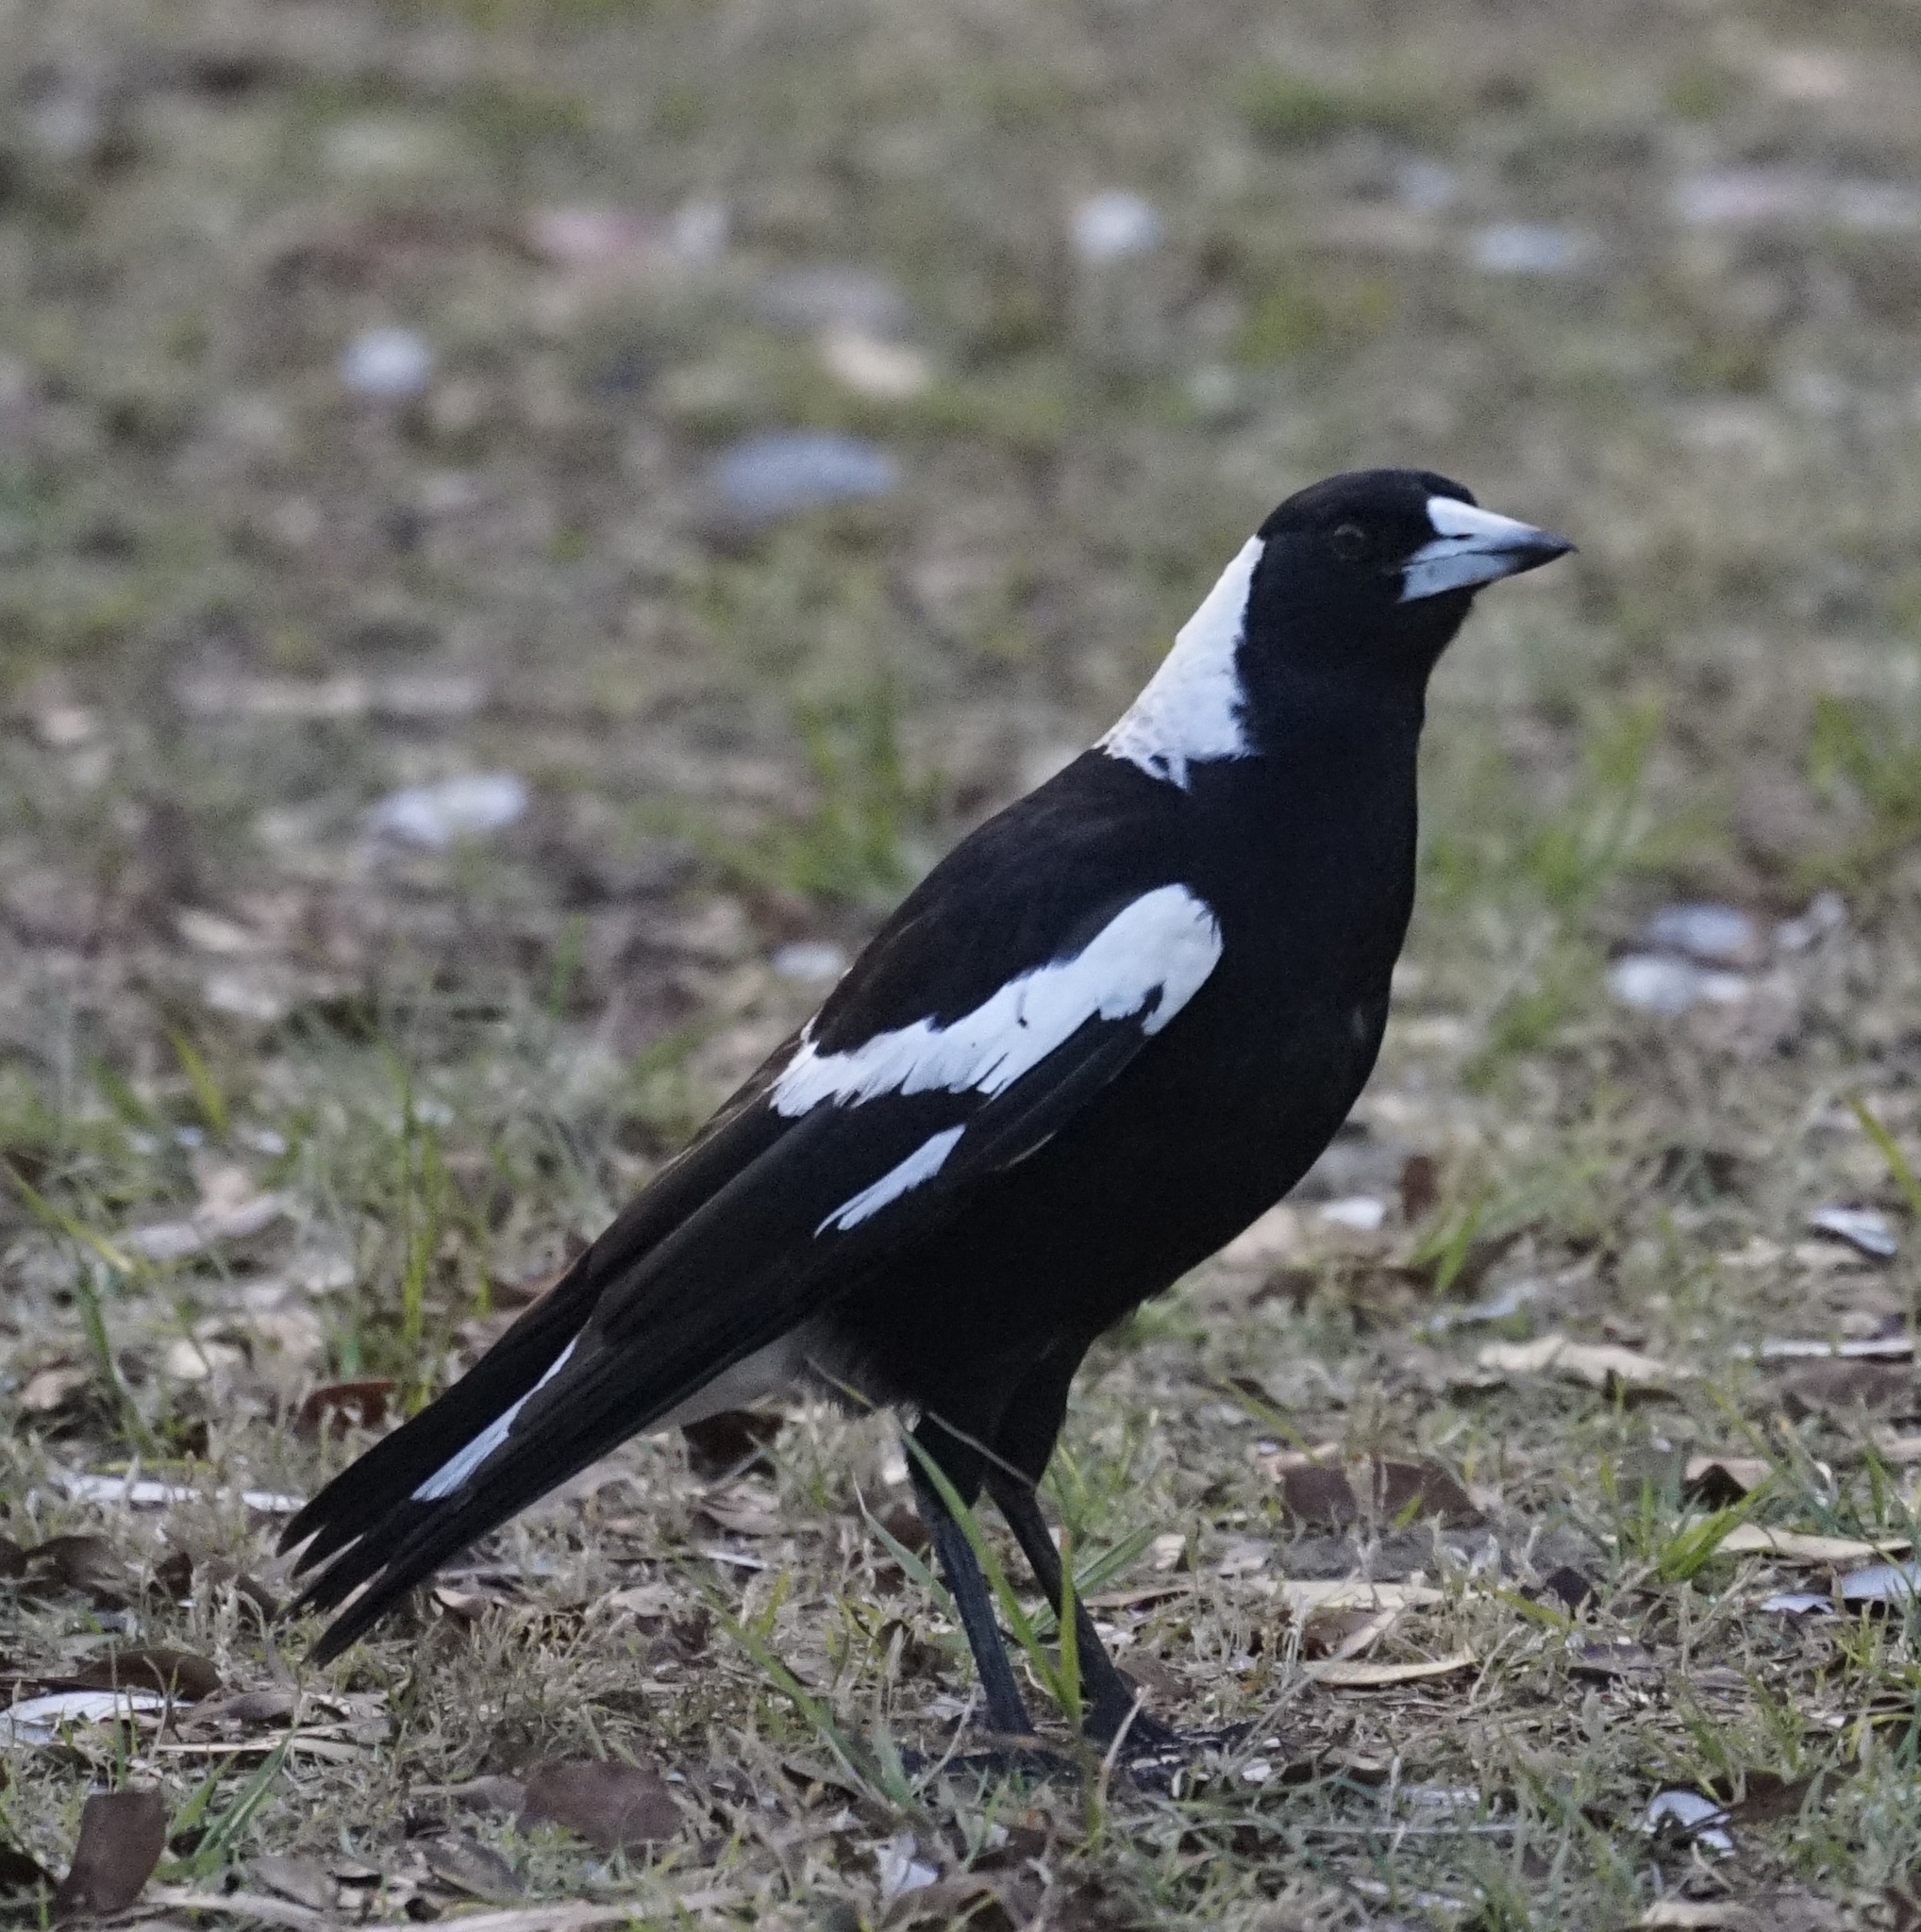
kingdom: Animalia
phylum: Chordata
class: Aves
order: Passeriformes
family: Cracticidae
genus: Gymnorhina
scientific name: Gymnorhina tibicen
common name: Australian magpie
